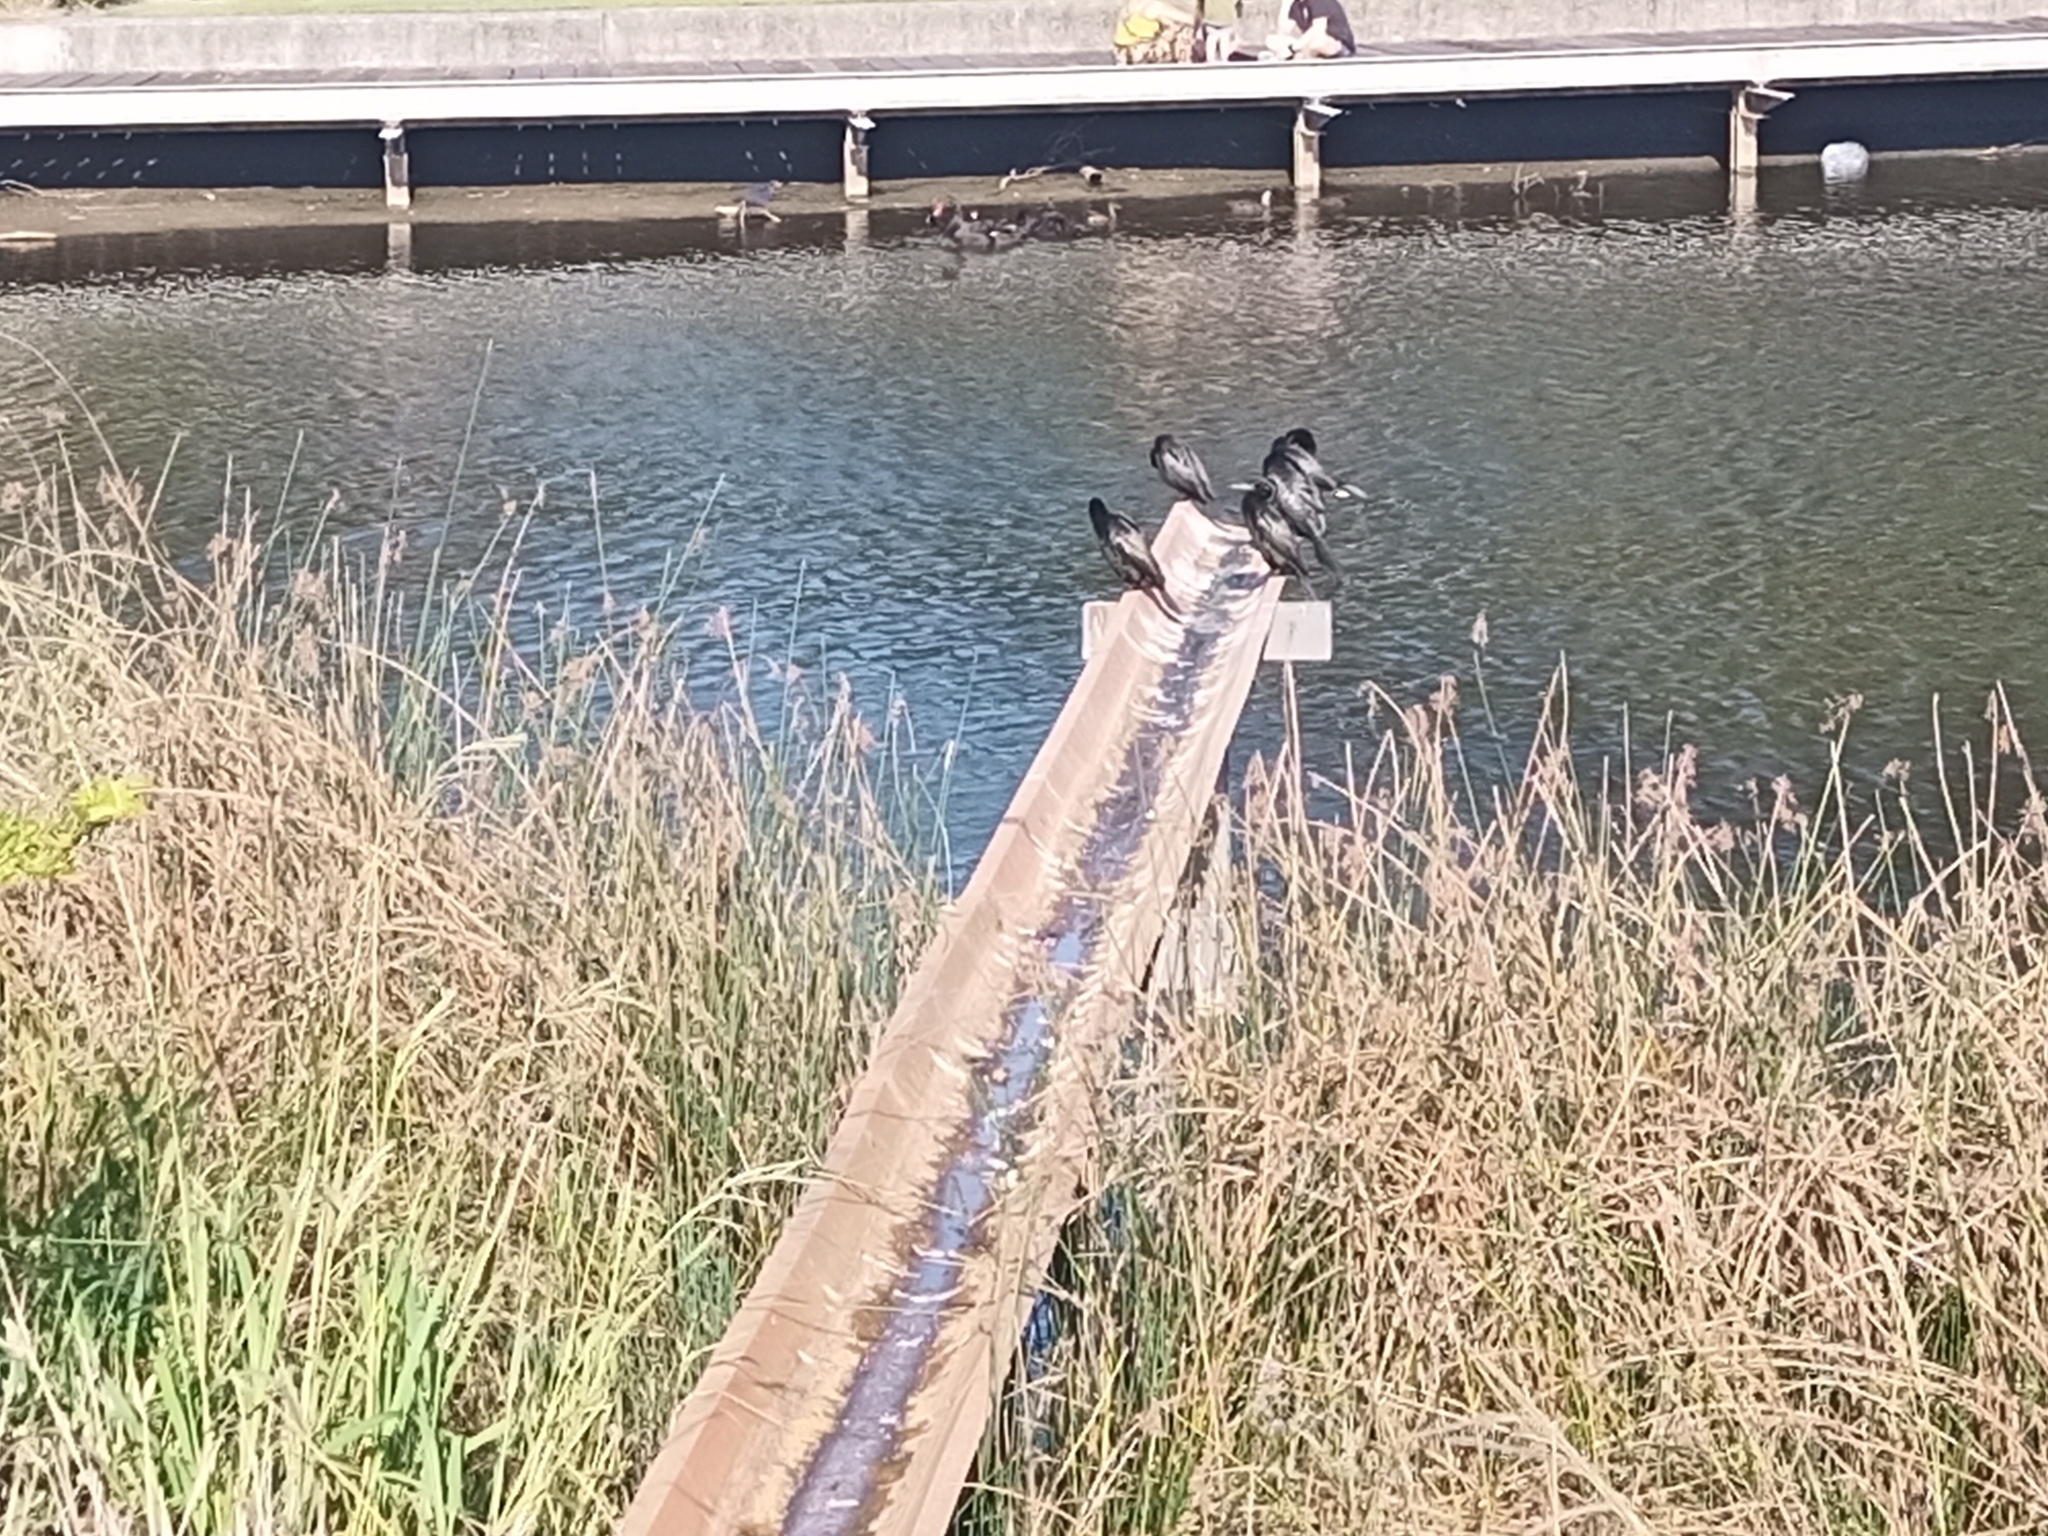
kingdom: Animalia
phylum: Chordata
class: Aves
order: Suliformes
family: Phalacrocoracidae
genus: Phalacrocorax
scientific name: Phalacrocorax sulcirostris
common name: Little black cormorant
